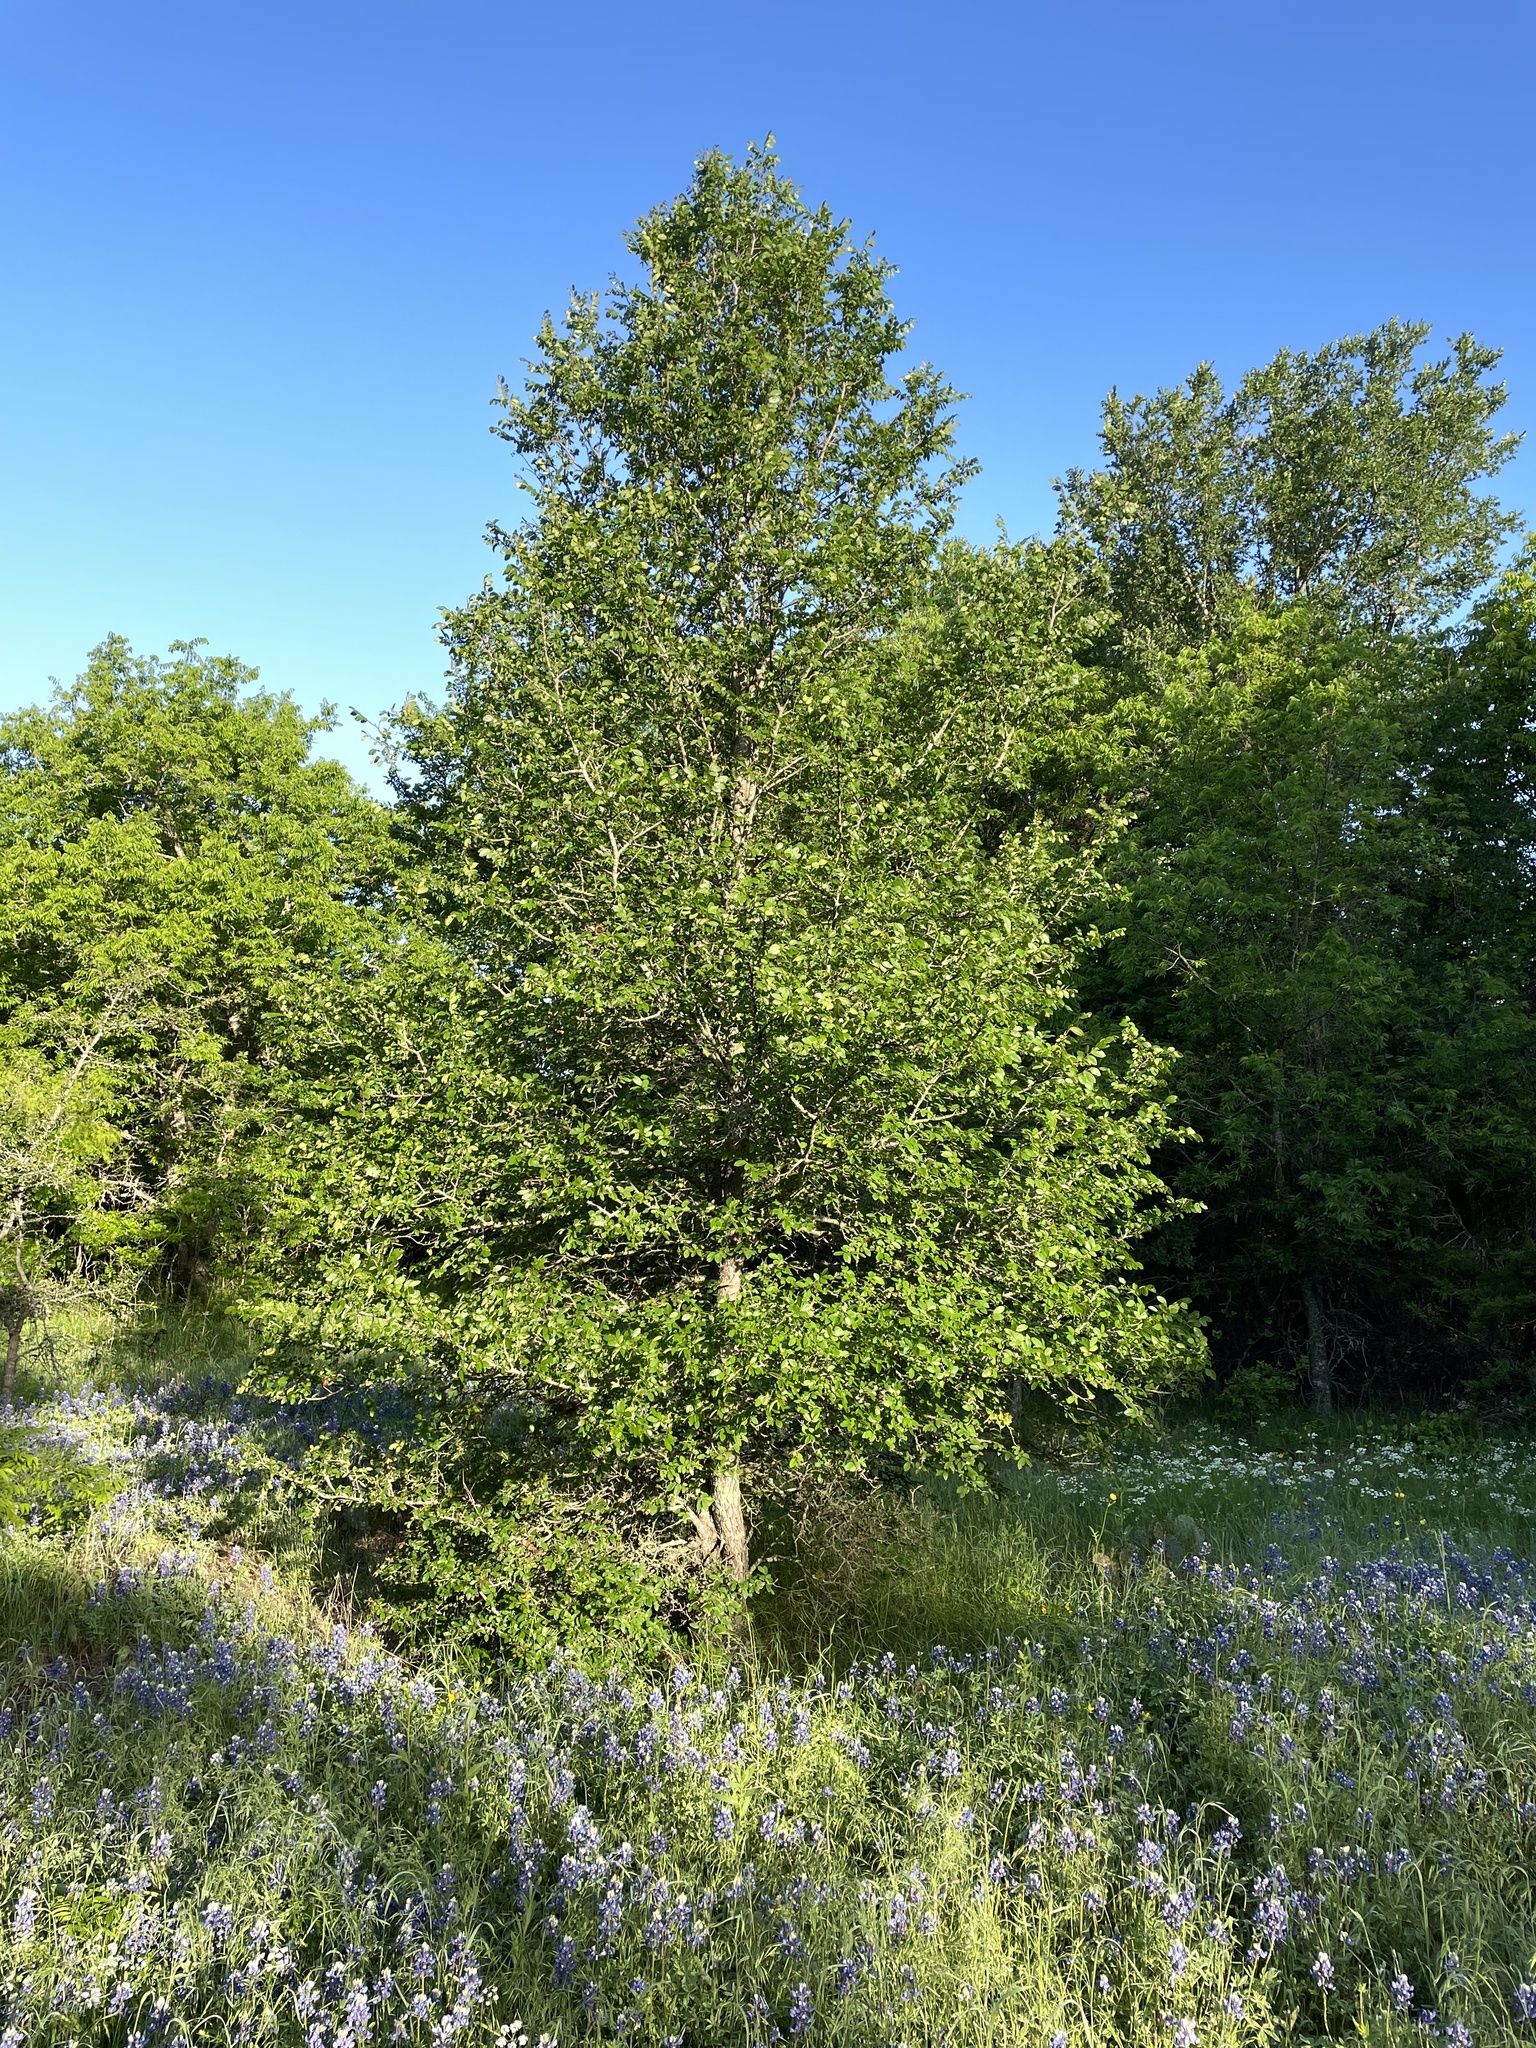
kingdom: Plantae
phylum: Tracheophyta
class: Magnoliopsida
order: Rosales
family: Ulmaceae
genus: Ulmus
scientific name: Ulmus crassifolia
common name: Basket elm
